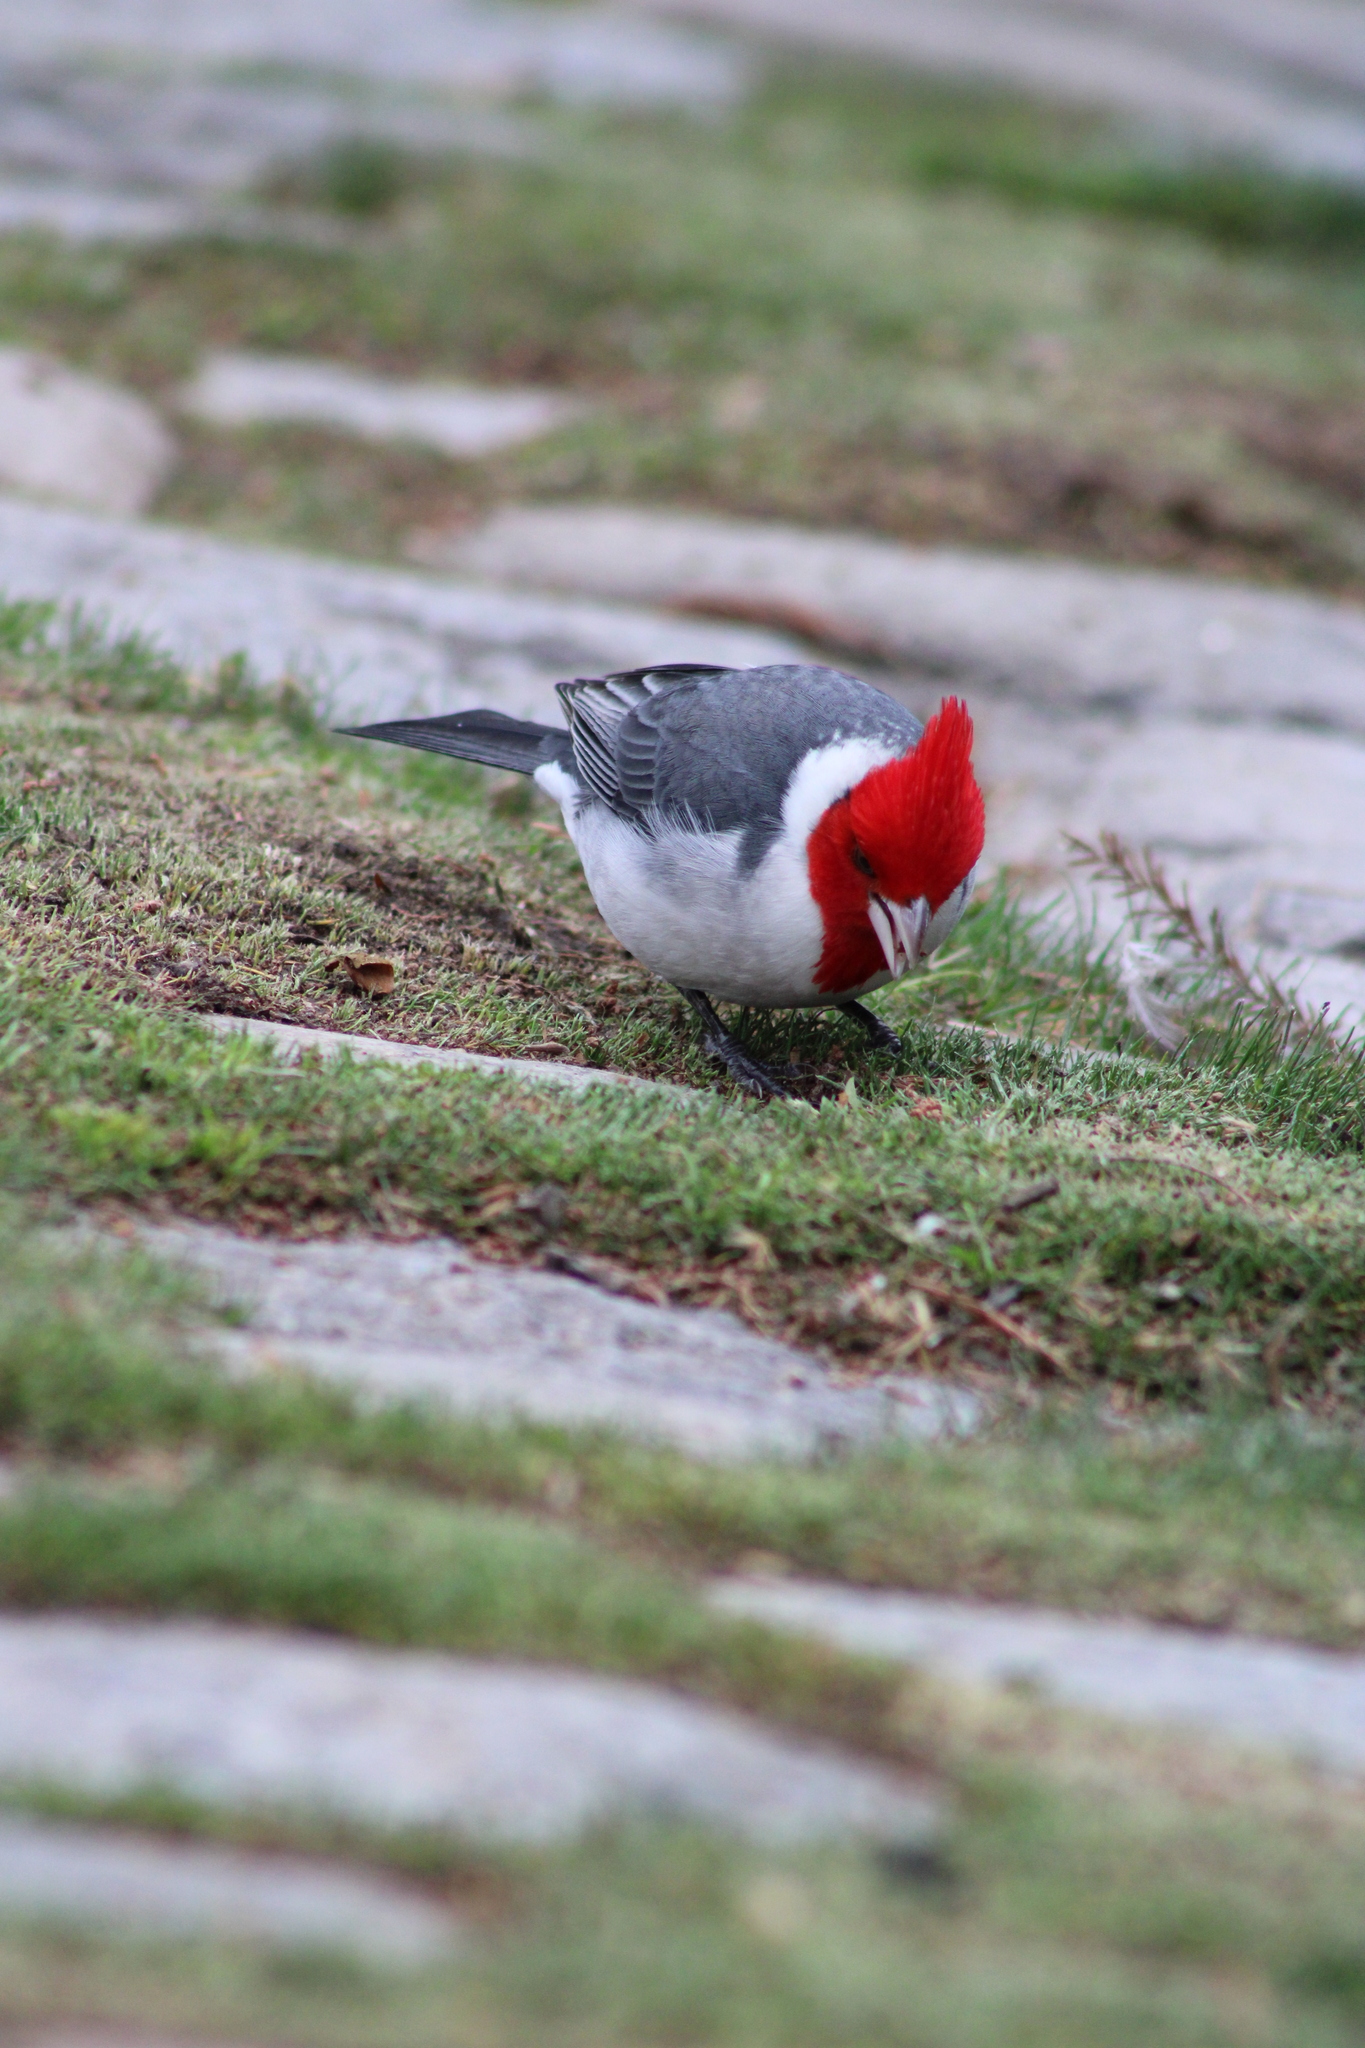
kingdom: Animalia
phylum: Chordata
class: Aves
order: Passeriformes
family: Thraupidae
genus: Paroaria
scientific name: Paroaria coronata
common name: Red-crested cardinal
